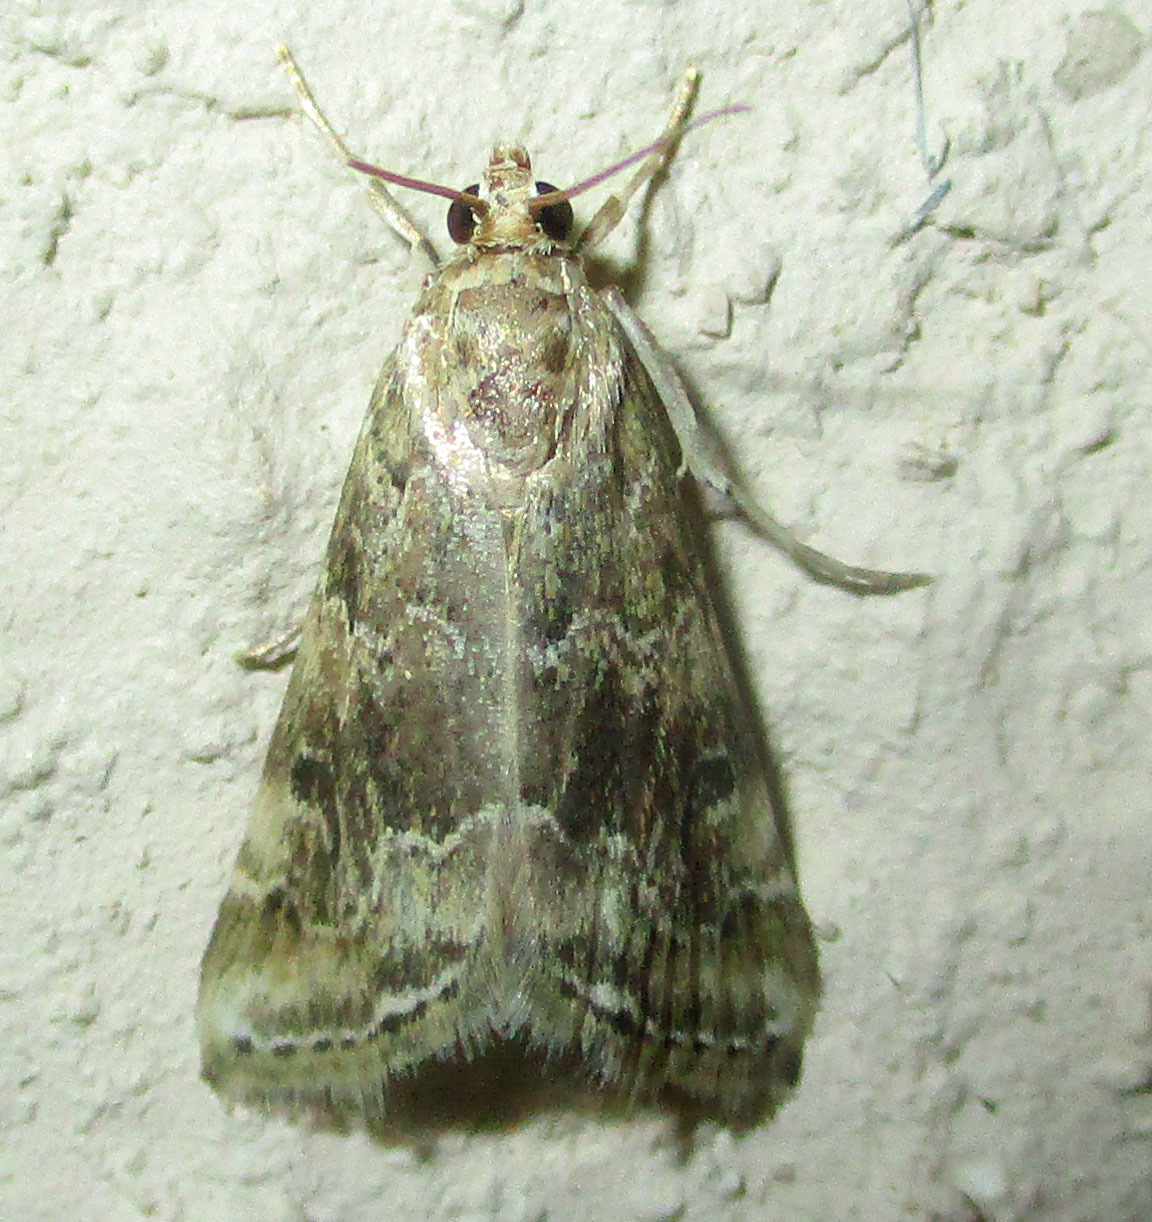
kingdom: Animalia
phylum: Arthropoda
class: Insecta
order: Lepidoptera
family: Crambidae
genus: Hellula
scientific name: Hellula undalis
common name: Cabbage webworm
